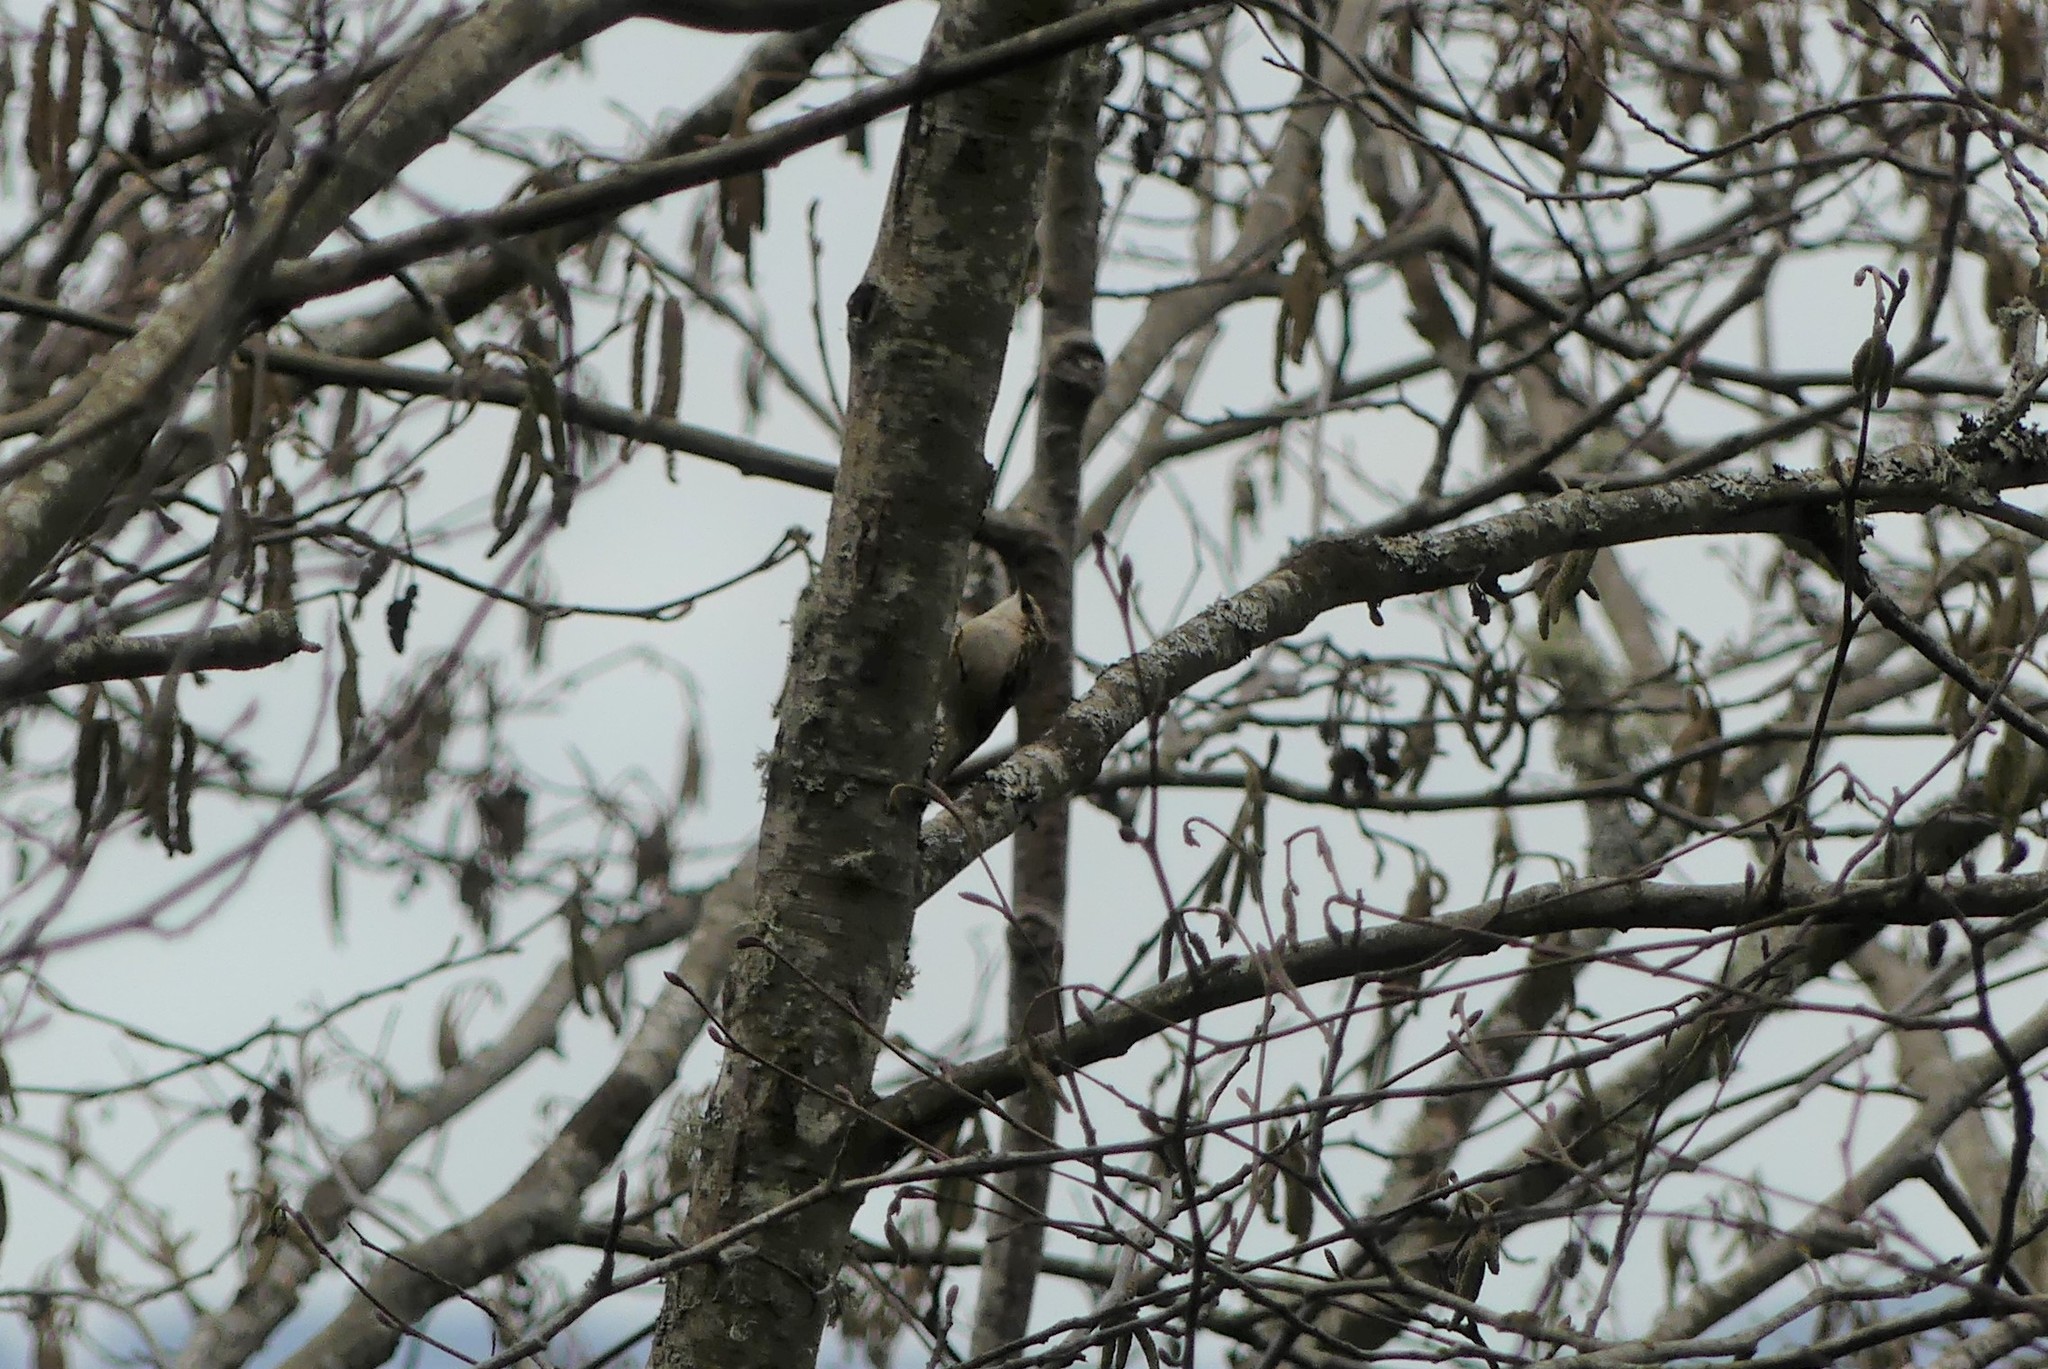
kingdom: Animalia
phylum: Chordata
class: Aves
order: Passeriformes
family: Certhiidae
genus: Certhia
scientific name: Certhia americana
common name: Brown creeper
